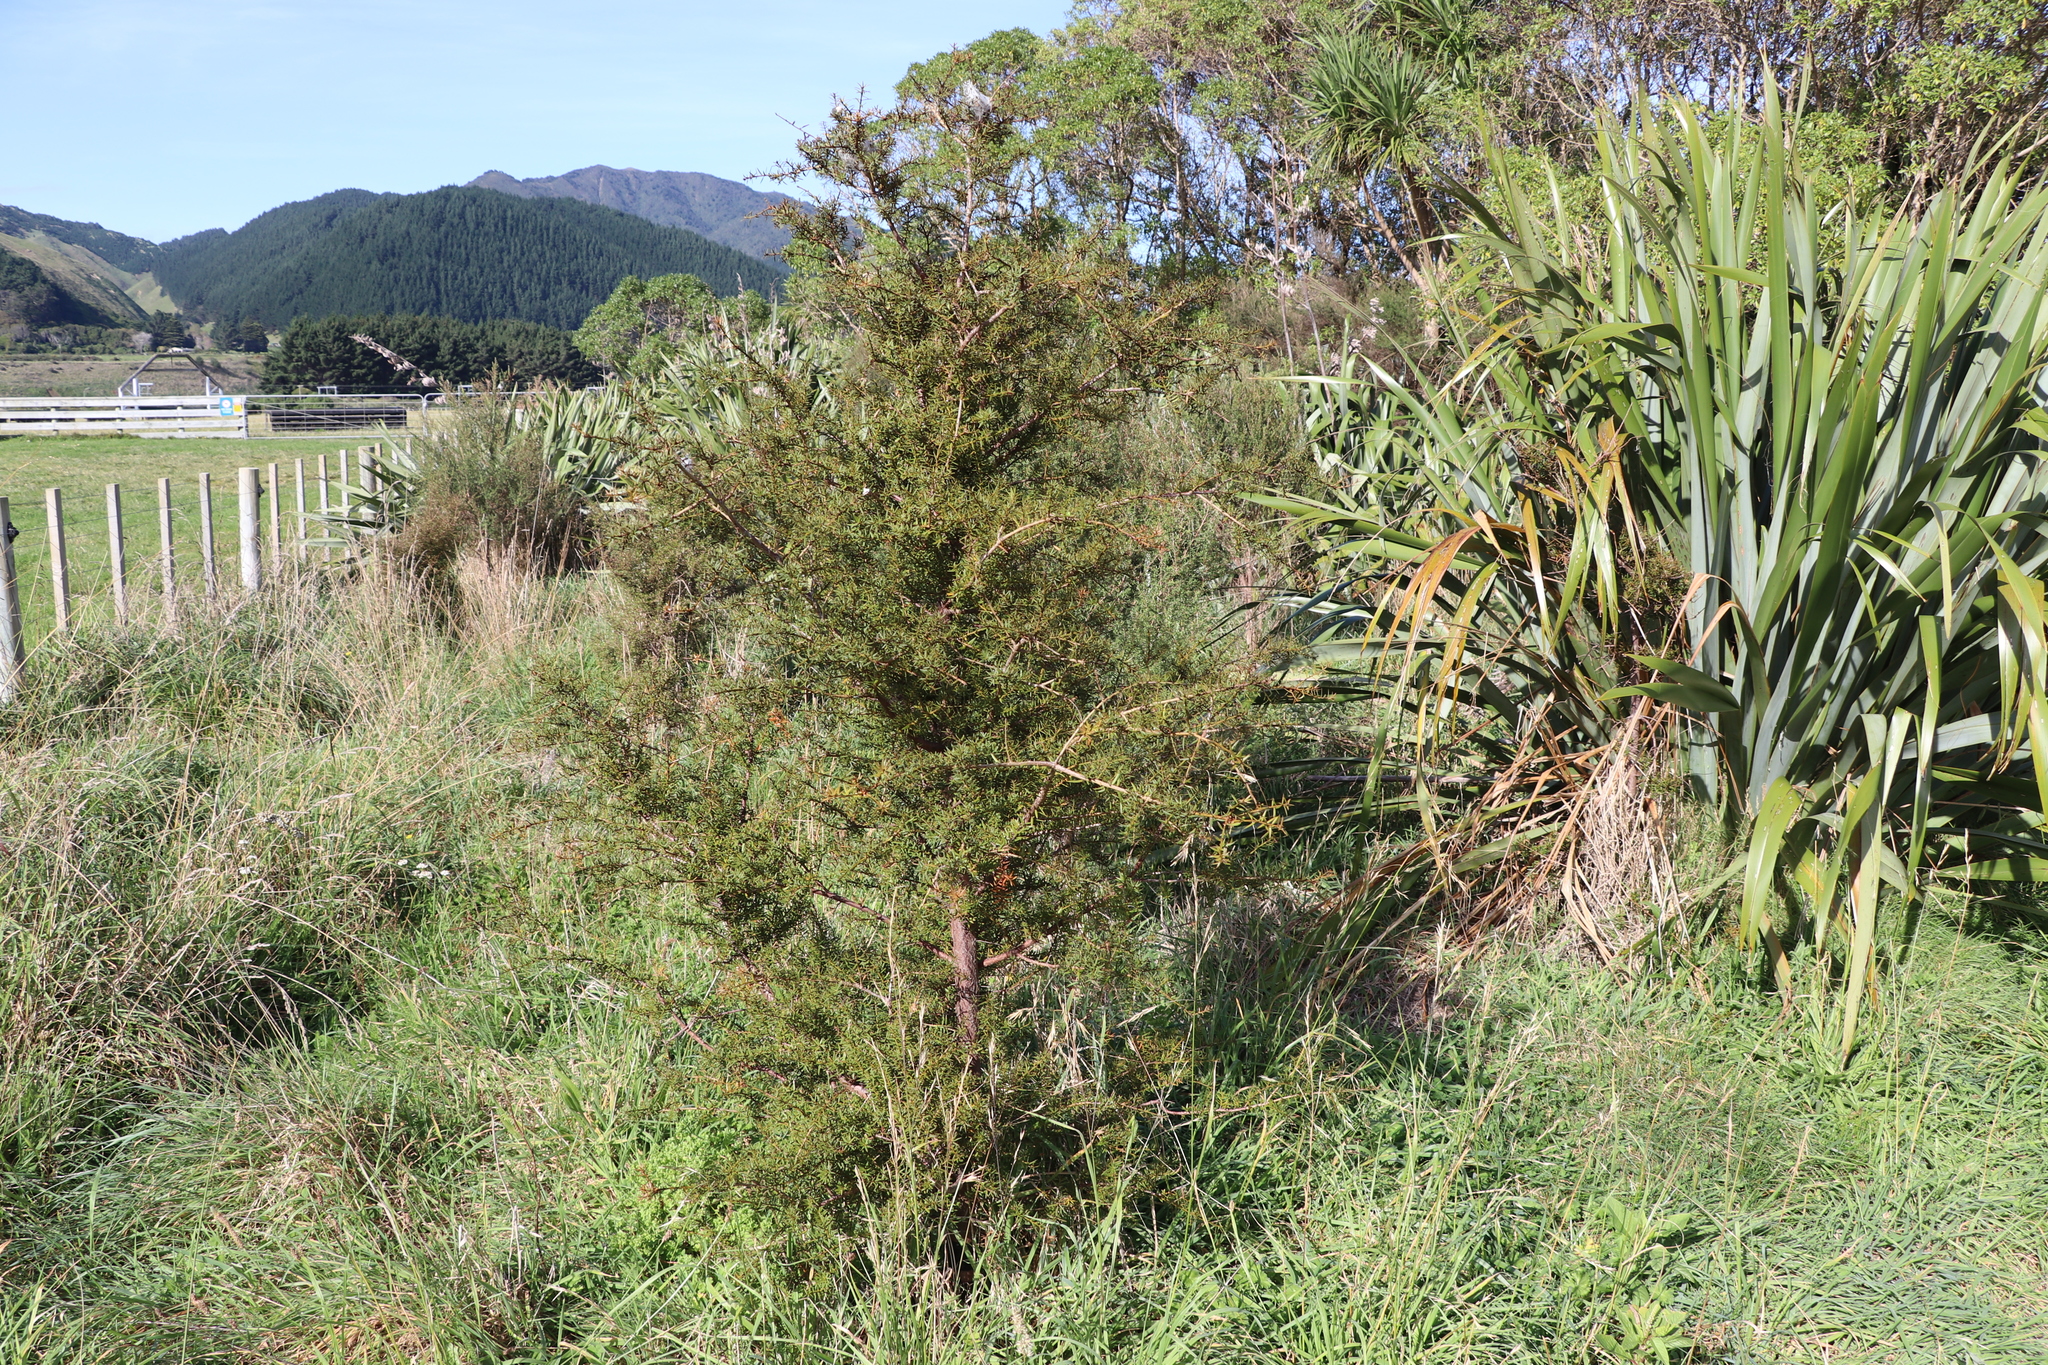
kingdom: Plantae
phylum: Tracheophyta
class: Pinopsida
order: Pinales
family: Podocarpaceae
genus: Podocarpus
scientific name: Podocarpus totara
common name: Totara
